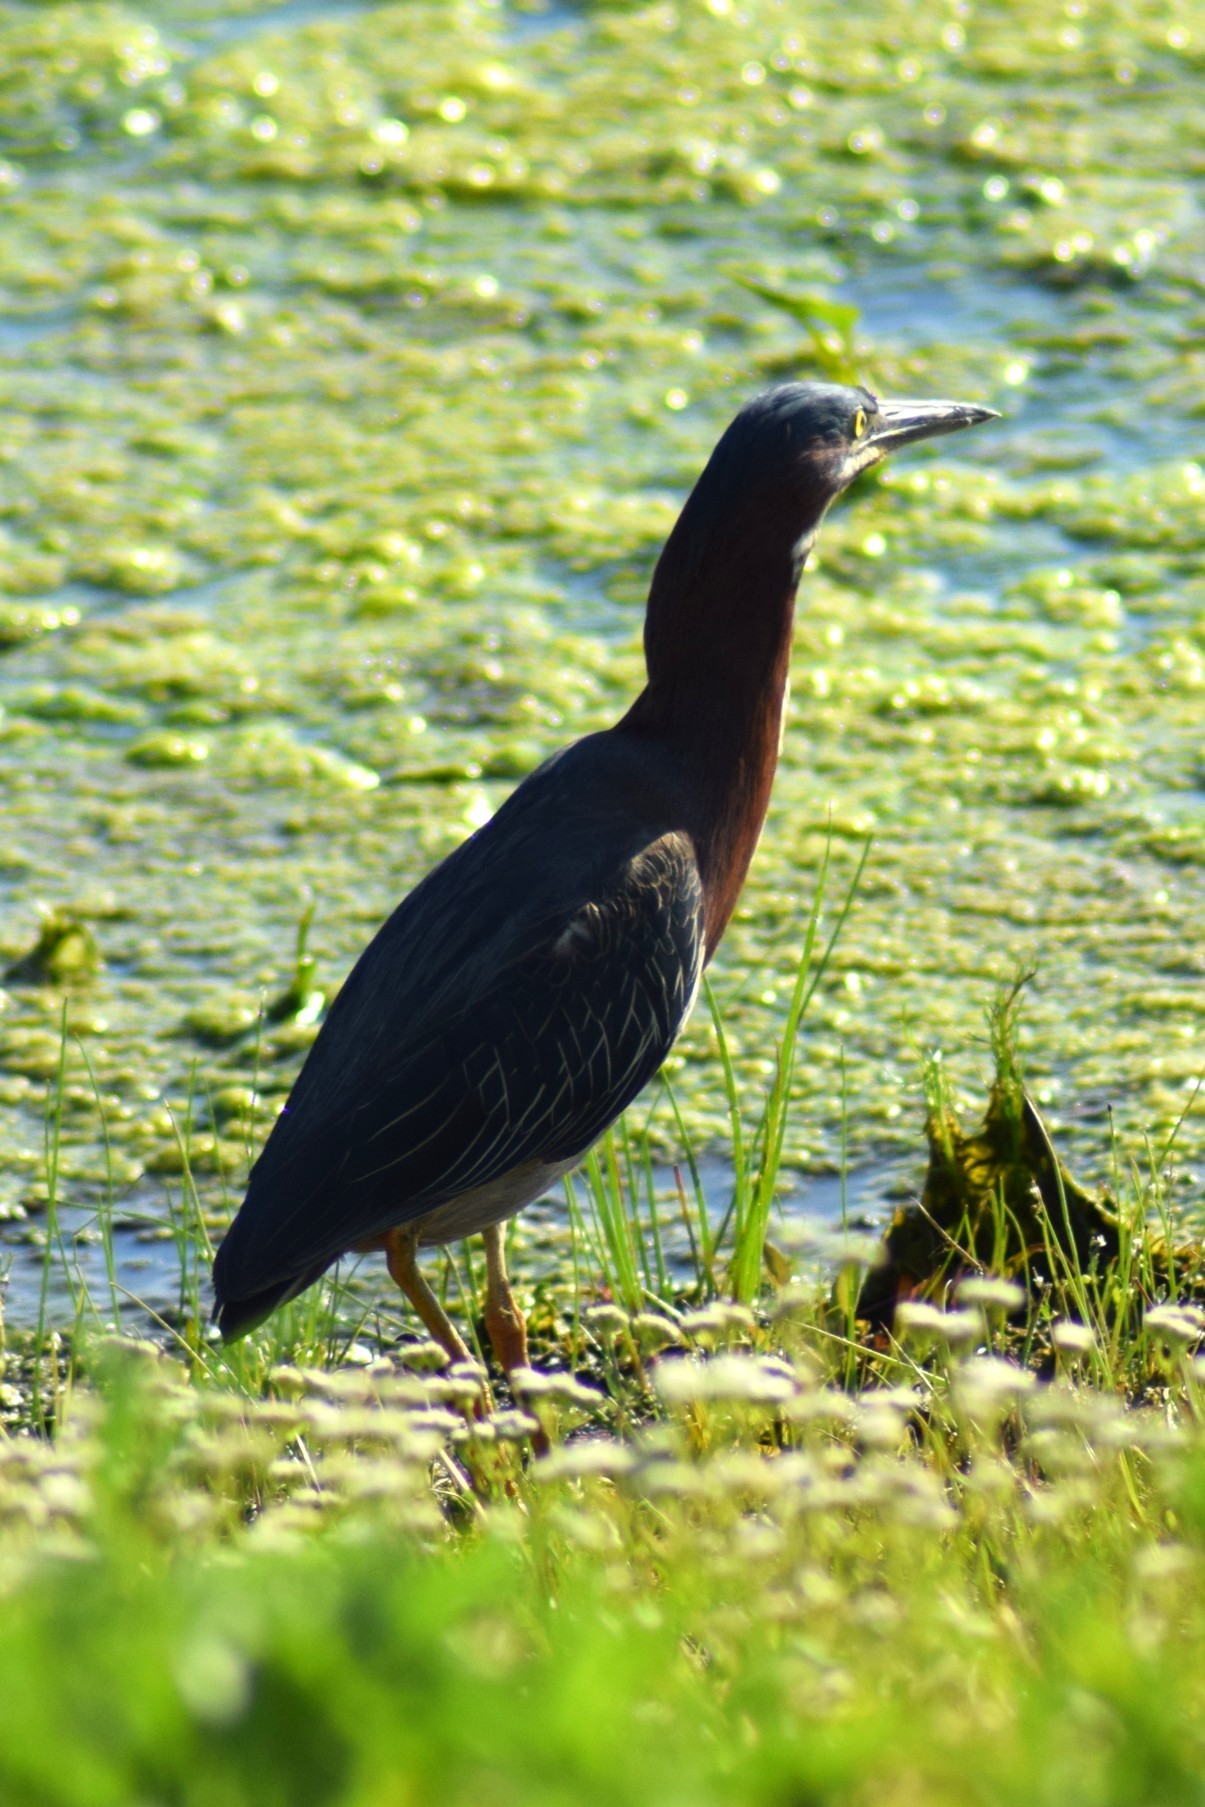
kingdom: Animalia
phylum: Chordata
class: Aves
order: Pelecaniformes
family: Ardeidae
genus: Butorides
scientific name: Butorides virescens
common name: Green heron
